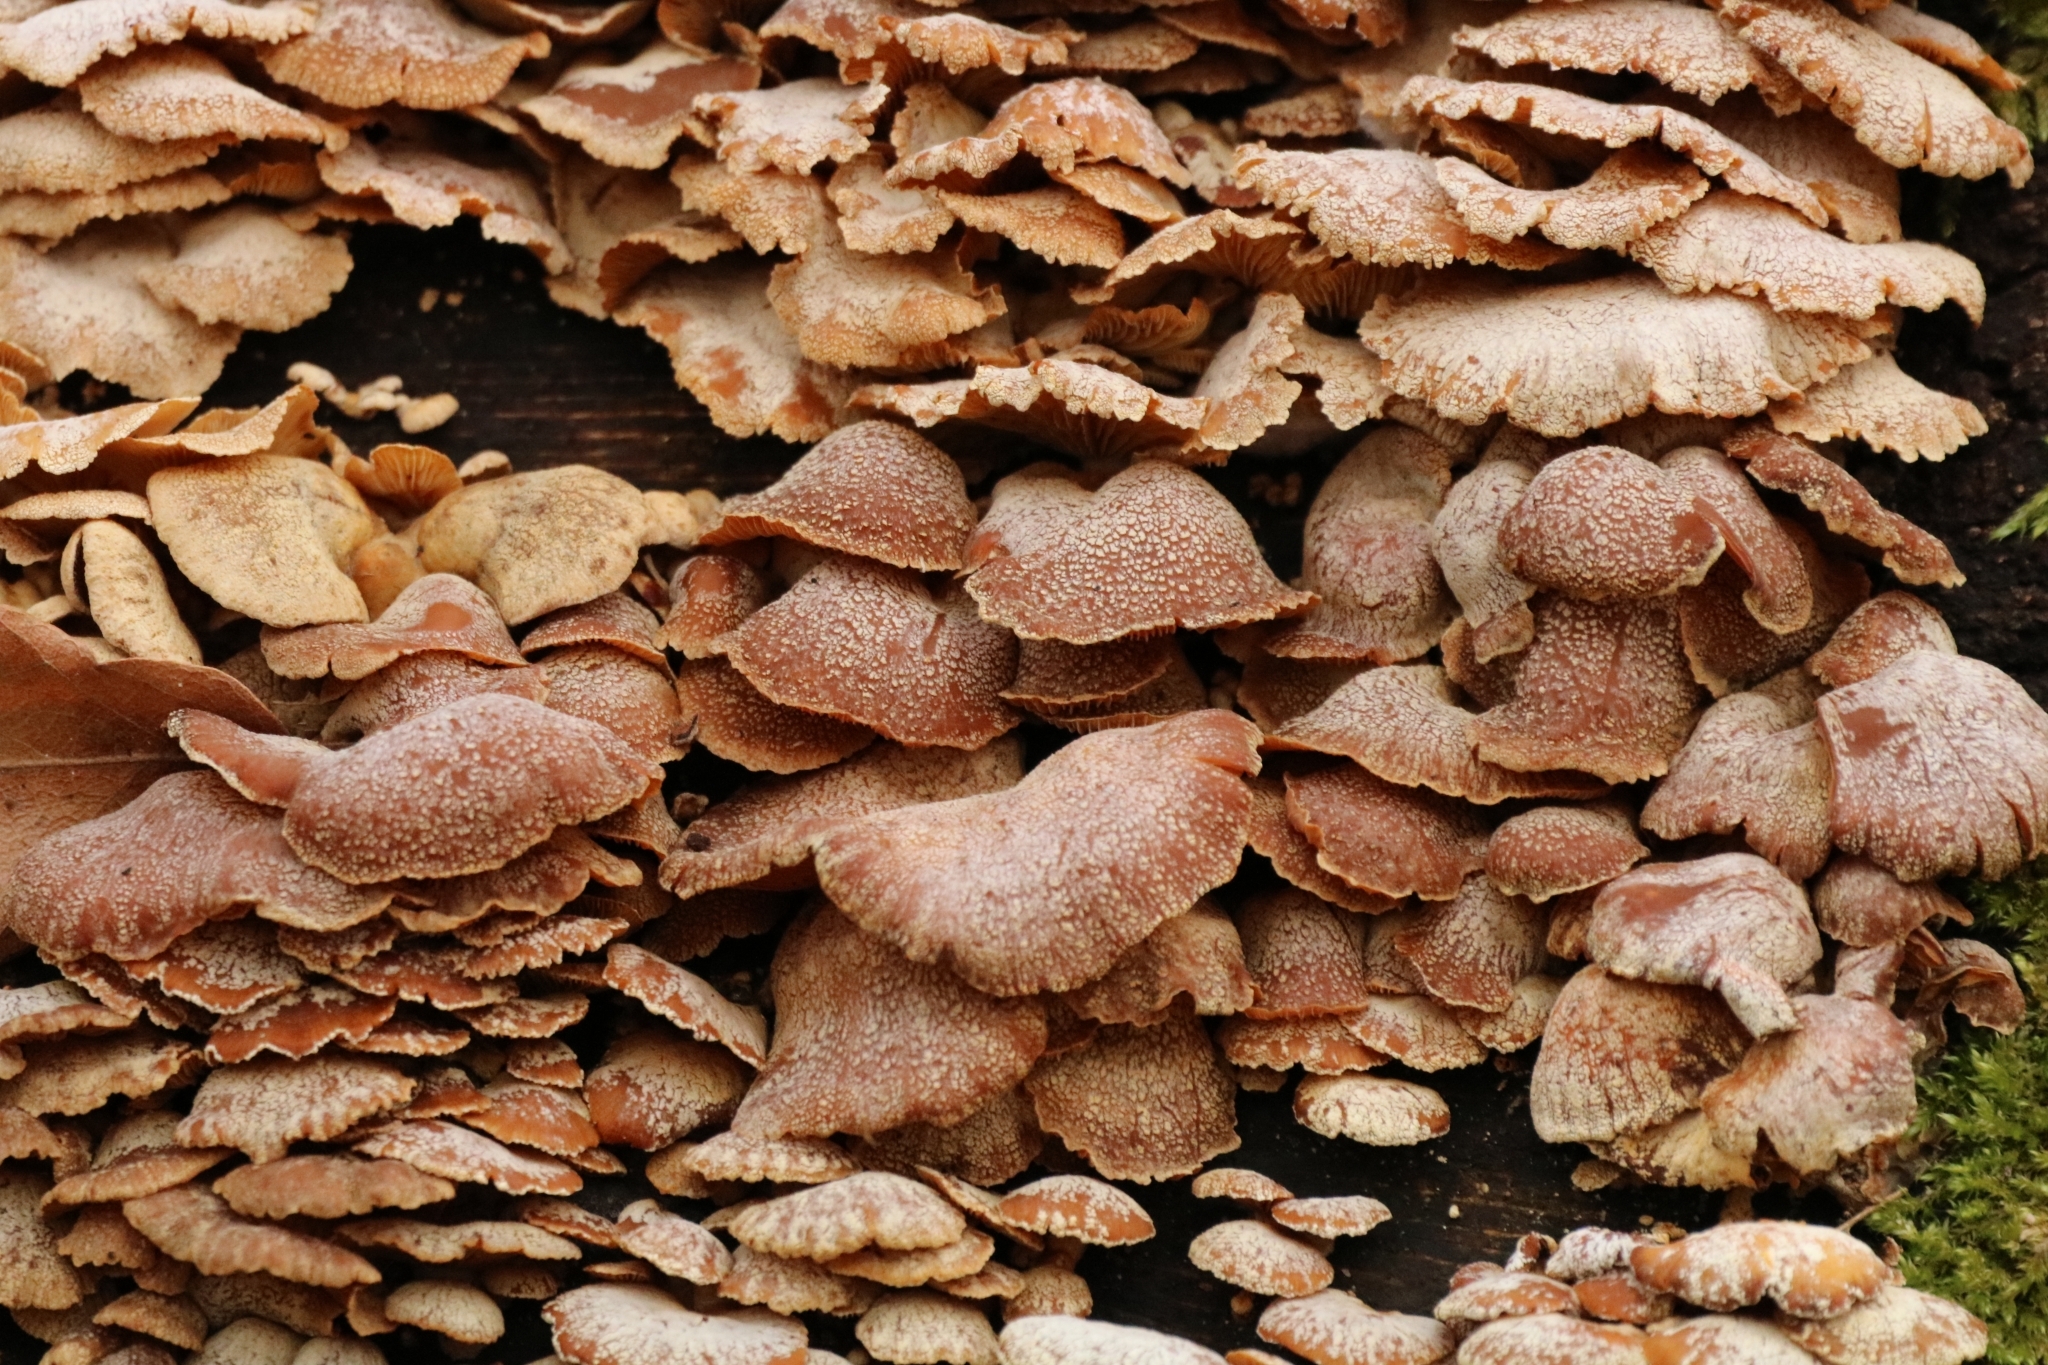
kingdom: Fungi
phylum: Basidiomycota
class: Agaricomycetes
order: Agaricales
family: Mycenaceae
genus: Panellus
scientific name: Panellus stipticus
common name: Bitter oysterling
